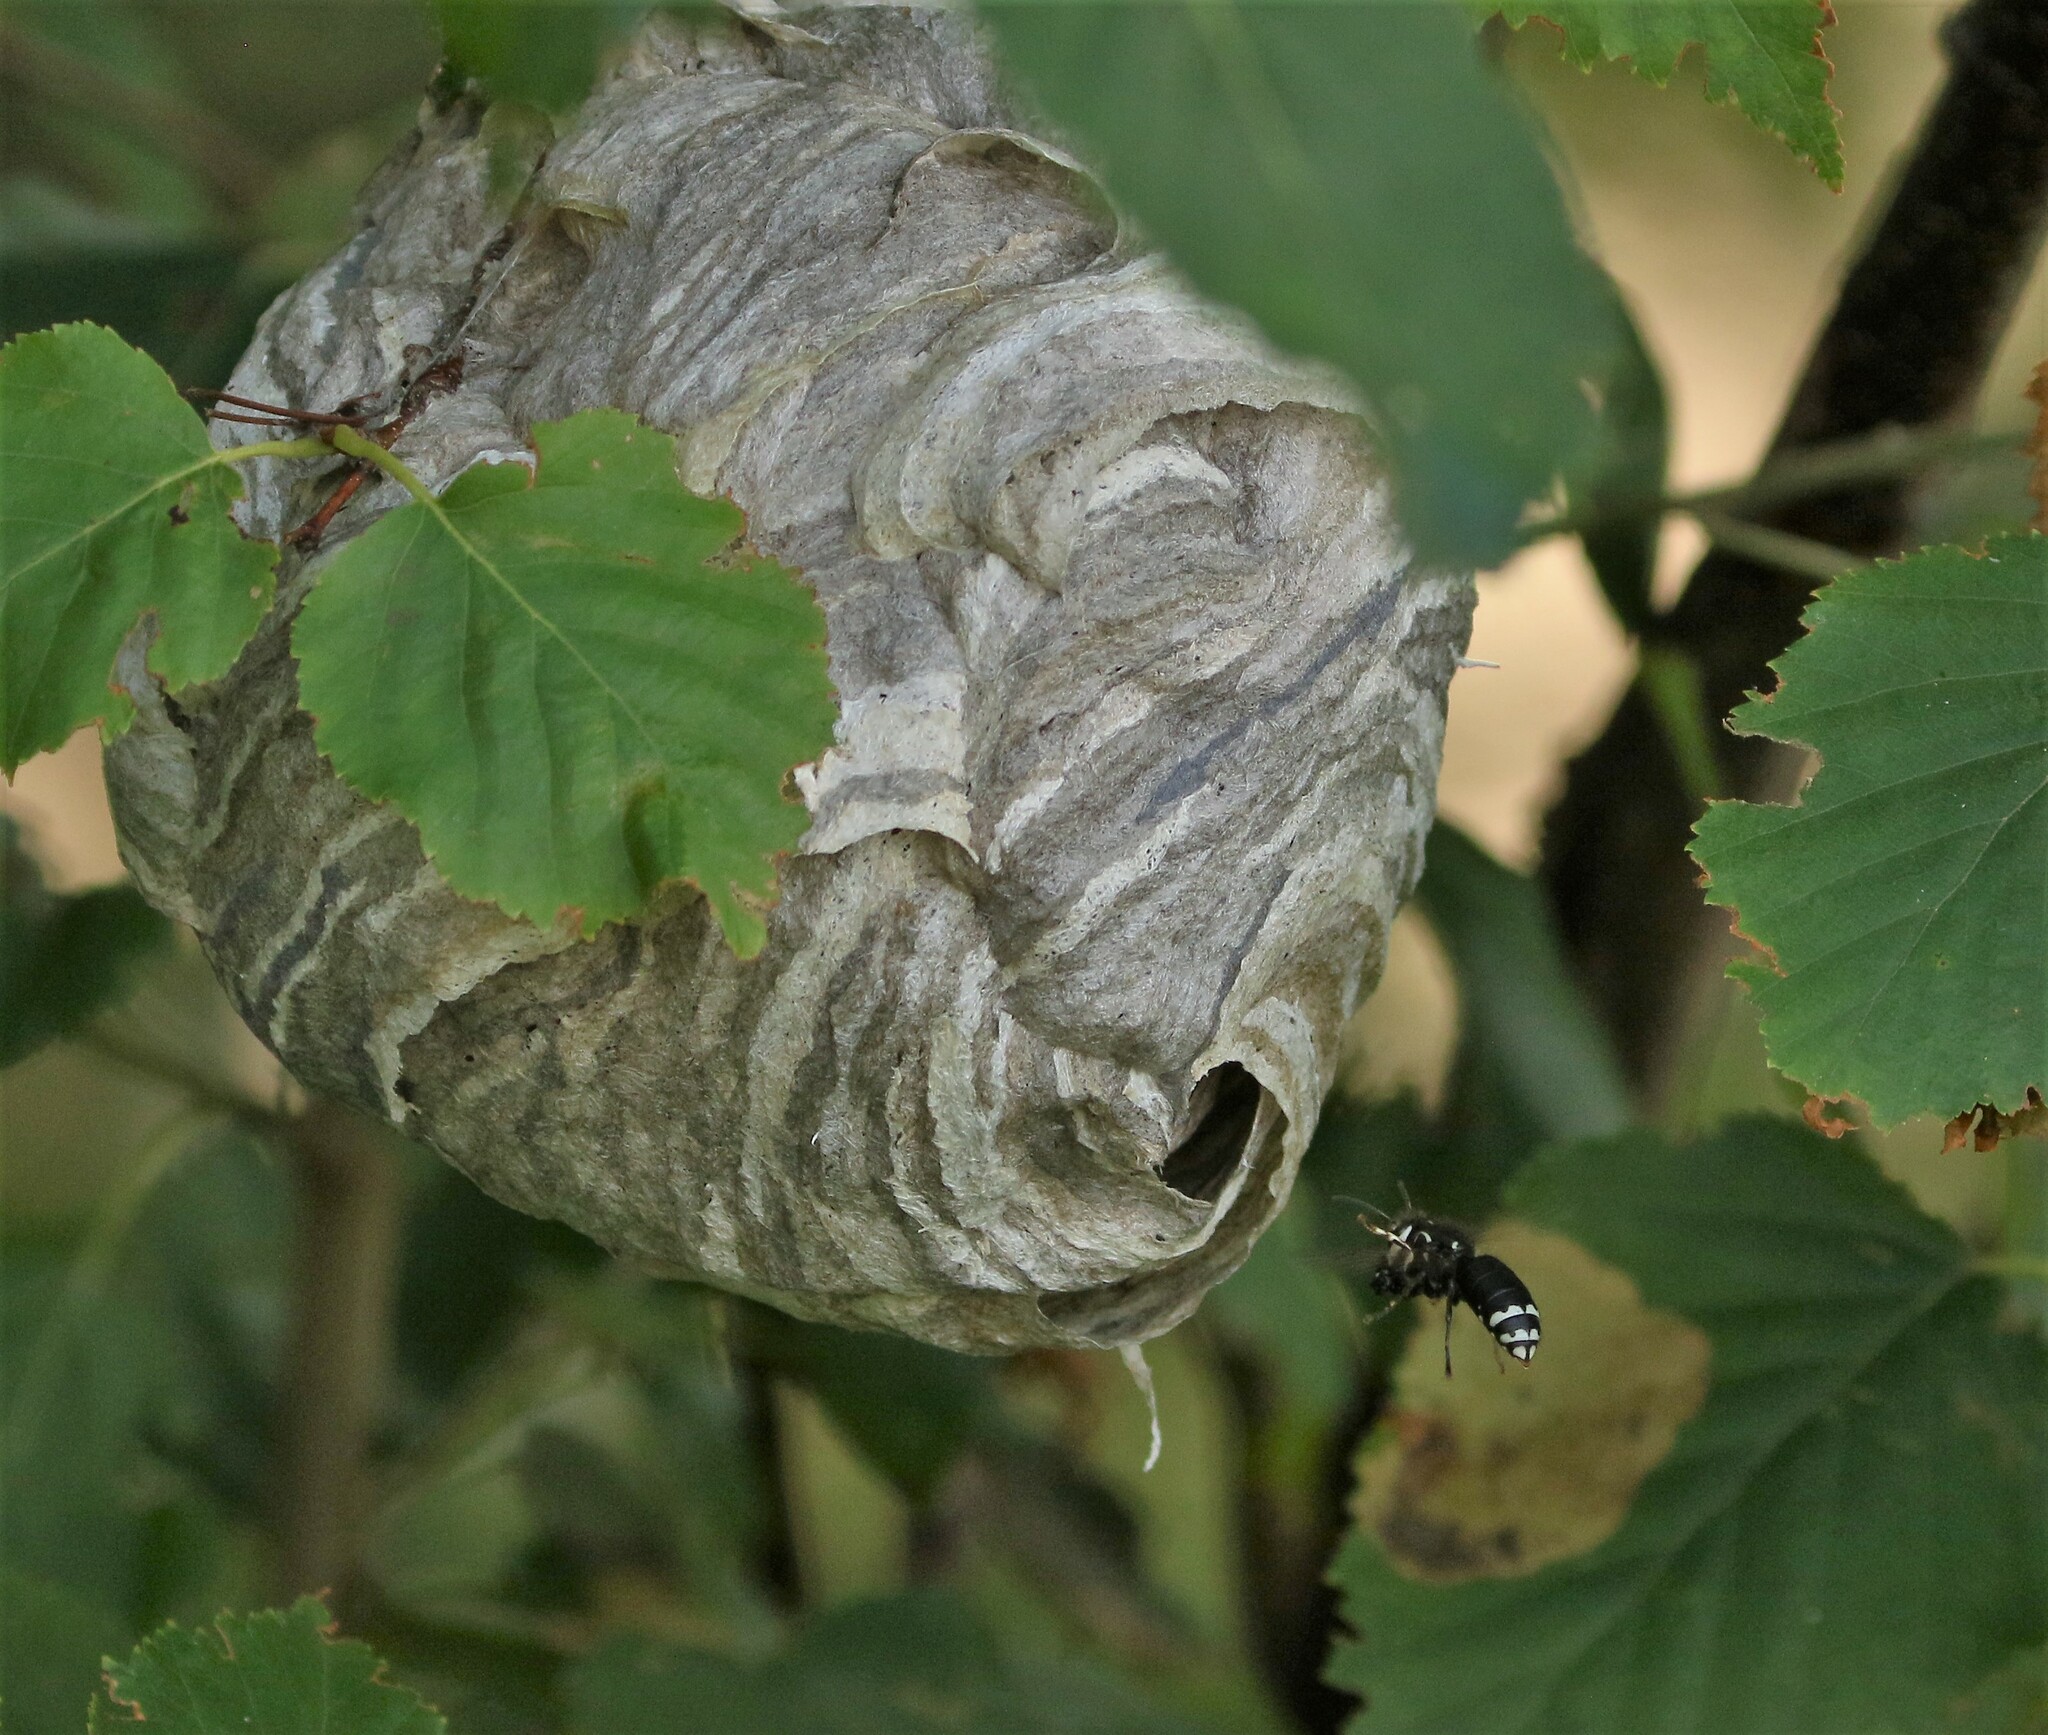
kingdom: Animalia
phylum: Arthropoda
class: Insecta
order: Hymenoptera
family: Vespidae
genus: Dolichovespula
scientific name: Dolichovespula maculata
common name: Bald-faced hornet
